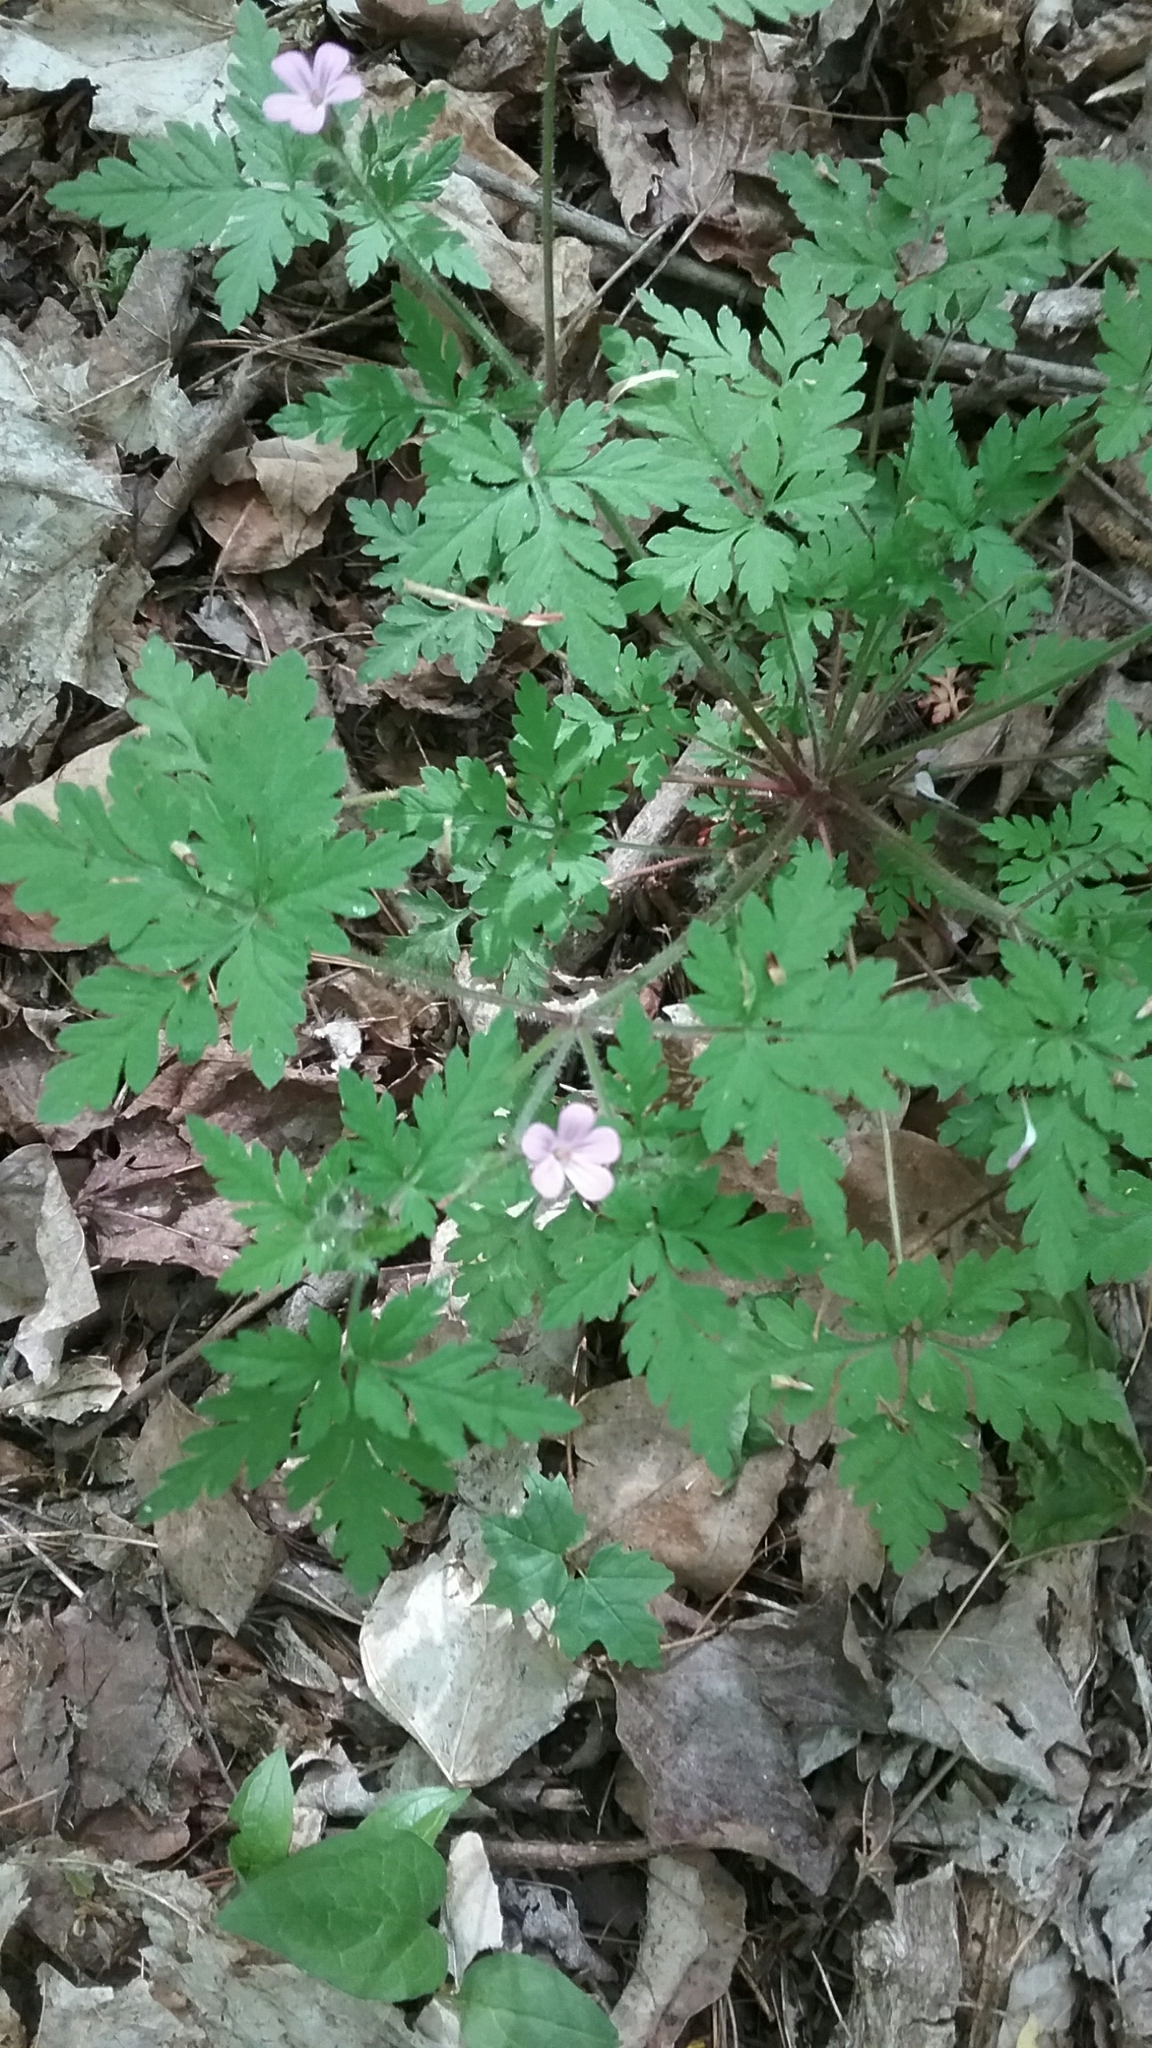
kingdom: Plantae
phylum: Tracheophyta
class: Magnoliopsida
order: Geraniales
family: Geraniaceae
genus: Geranium
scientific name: Geranium robertianum
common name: Herb-robert
